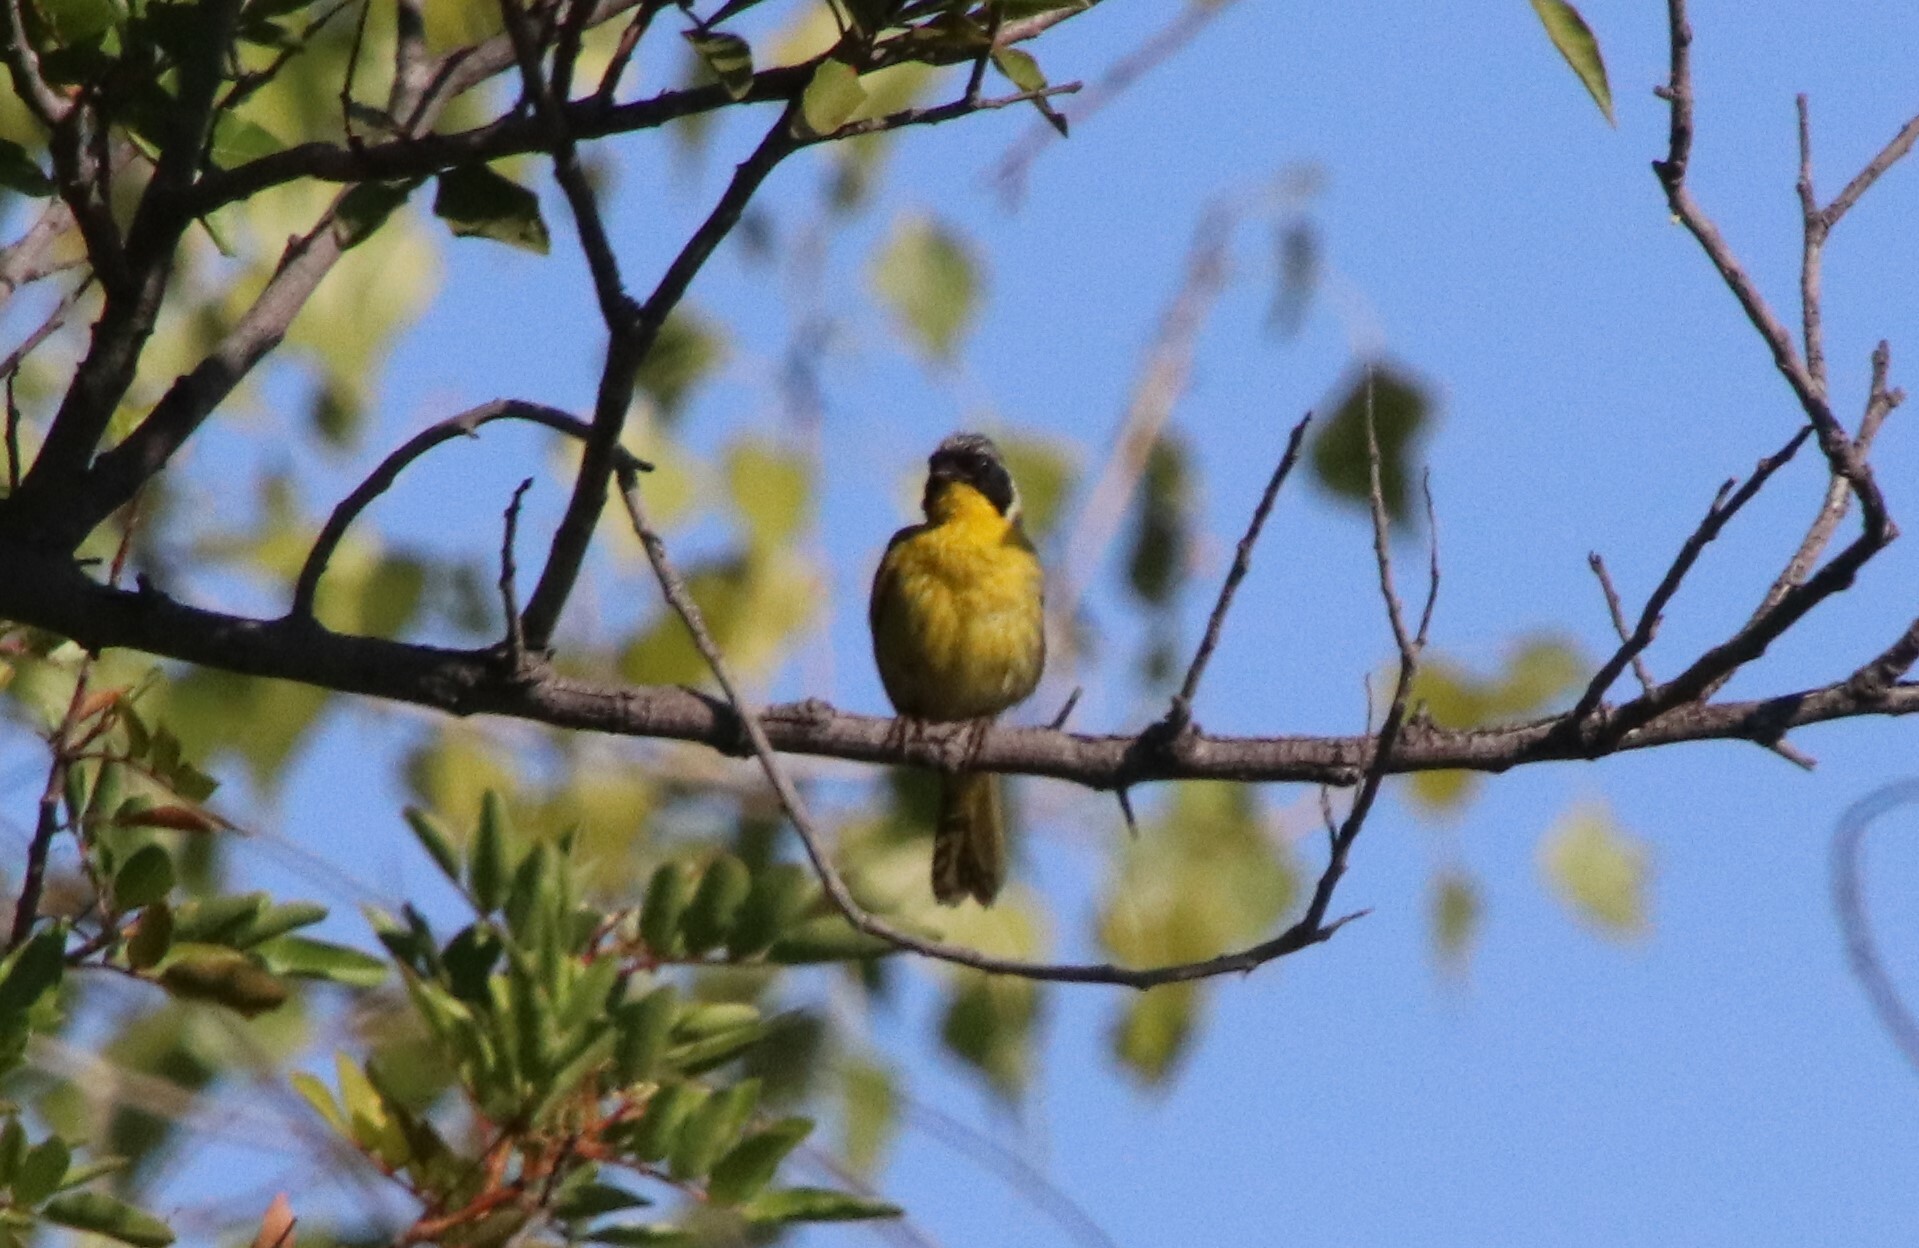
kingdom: Animalia
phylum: Chordata
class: Aves
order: Passeriformes
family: Parulidae
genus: Geothlypis
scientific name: Geothlypis trichas
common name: Common yellowthroat
